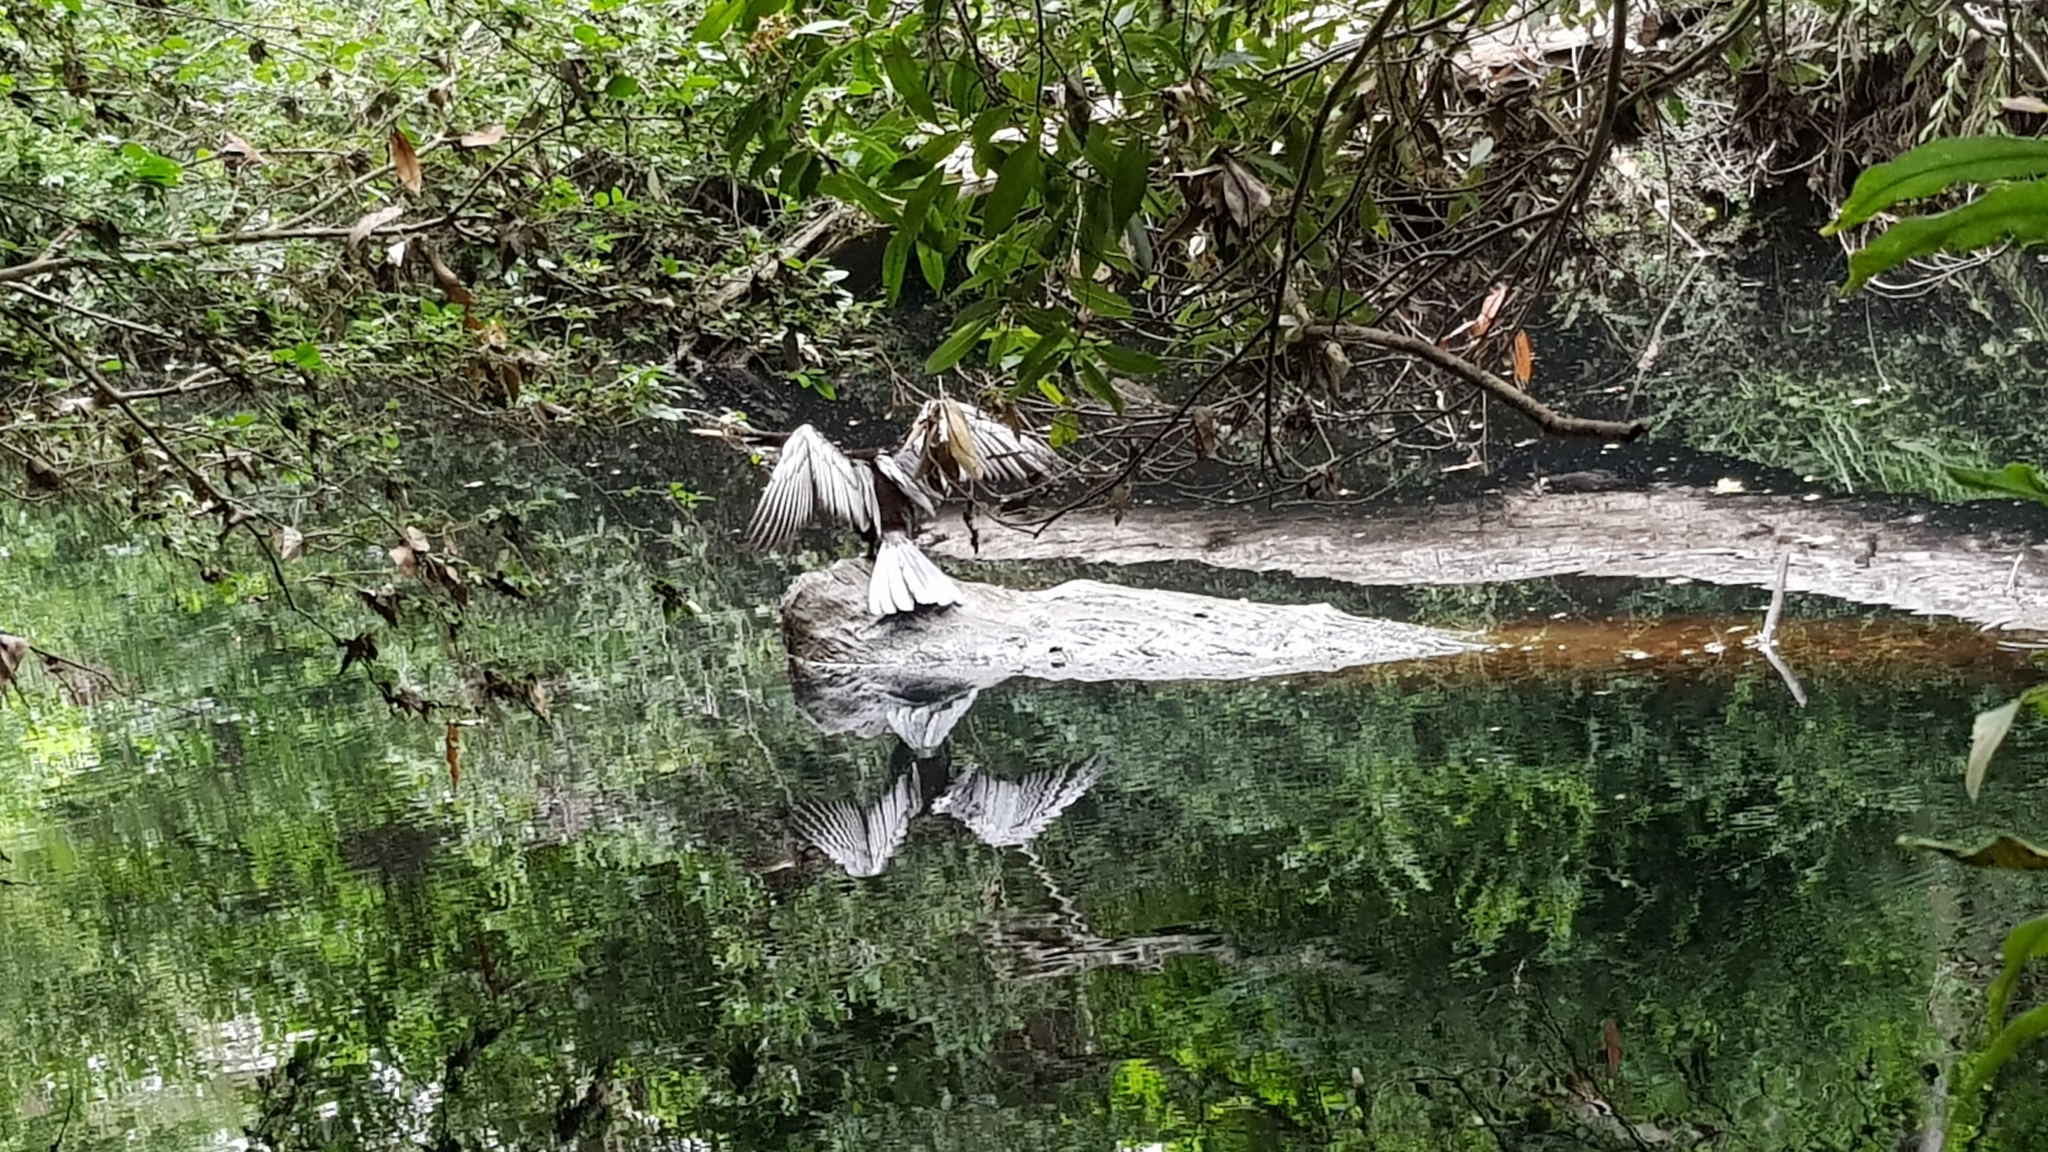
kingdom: Animalia
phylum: Chordata
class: Aves
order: Suliformes
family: Anhingidae
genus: Anhinga
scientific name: Anhinga novaehollandiae
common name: Australasian darter
